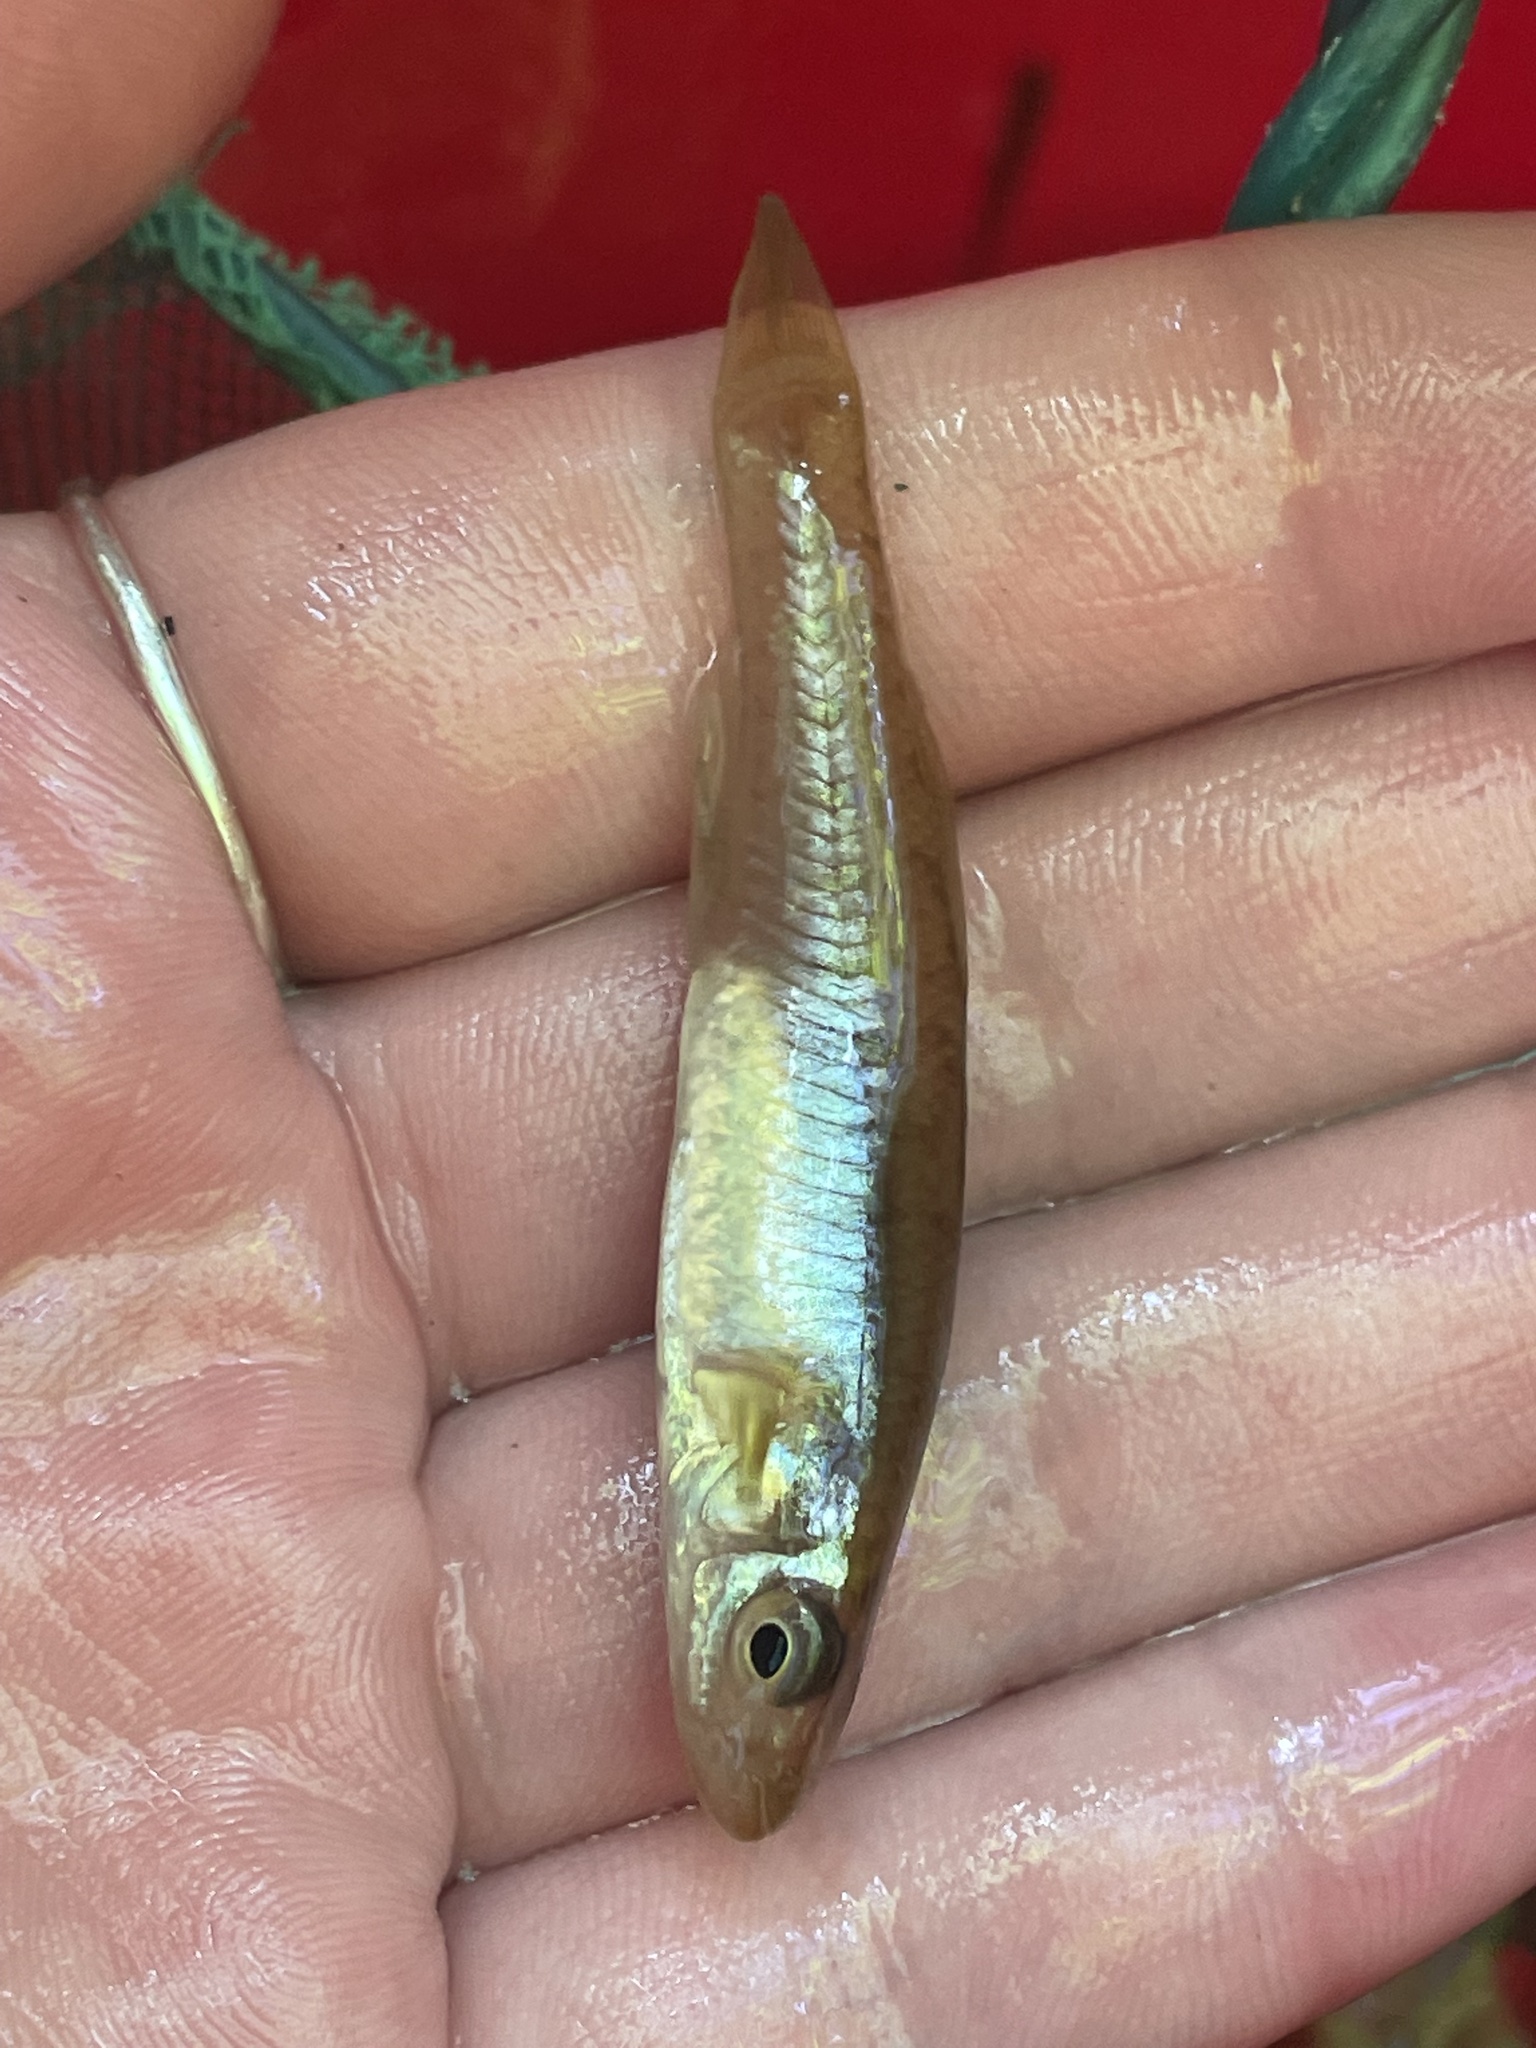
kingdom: Animalia
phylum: Chordata
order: Cyprinodontiformes
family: Fundulidae
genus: Fundulus
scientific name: Fundulus diaphanus
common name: Banded killifish
